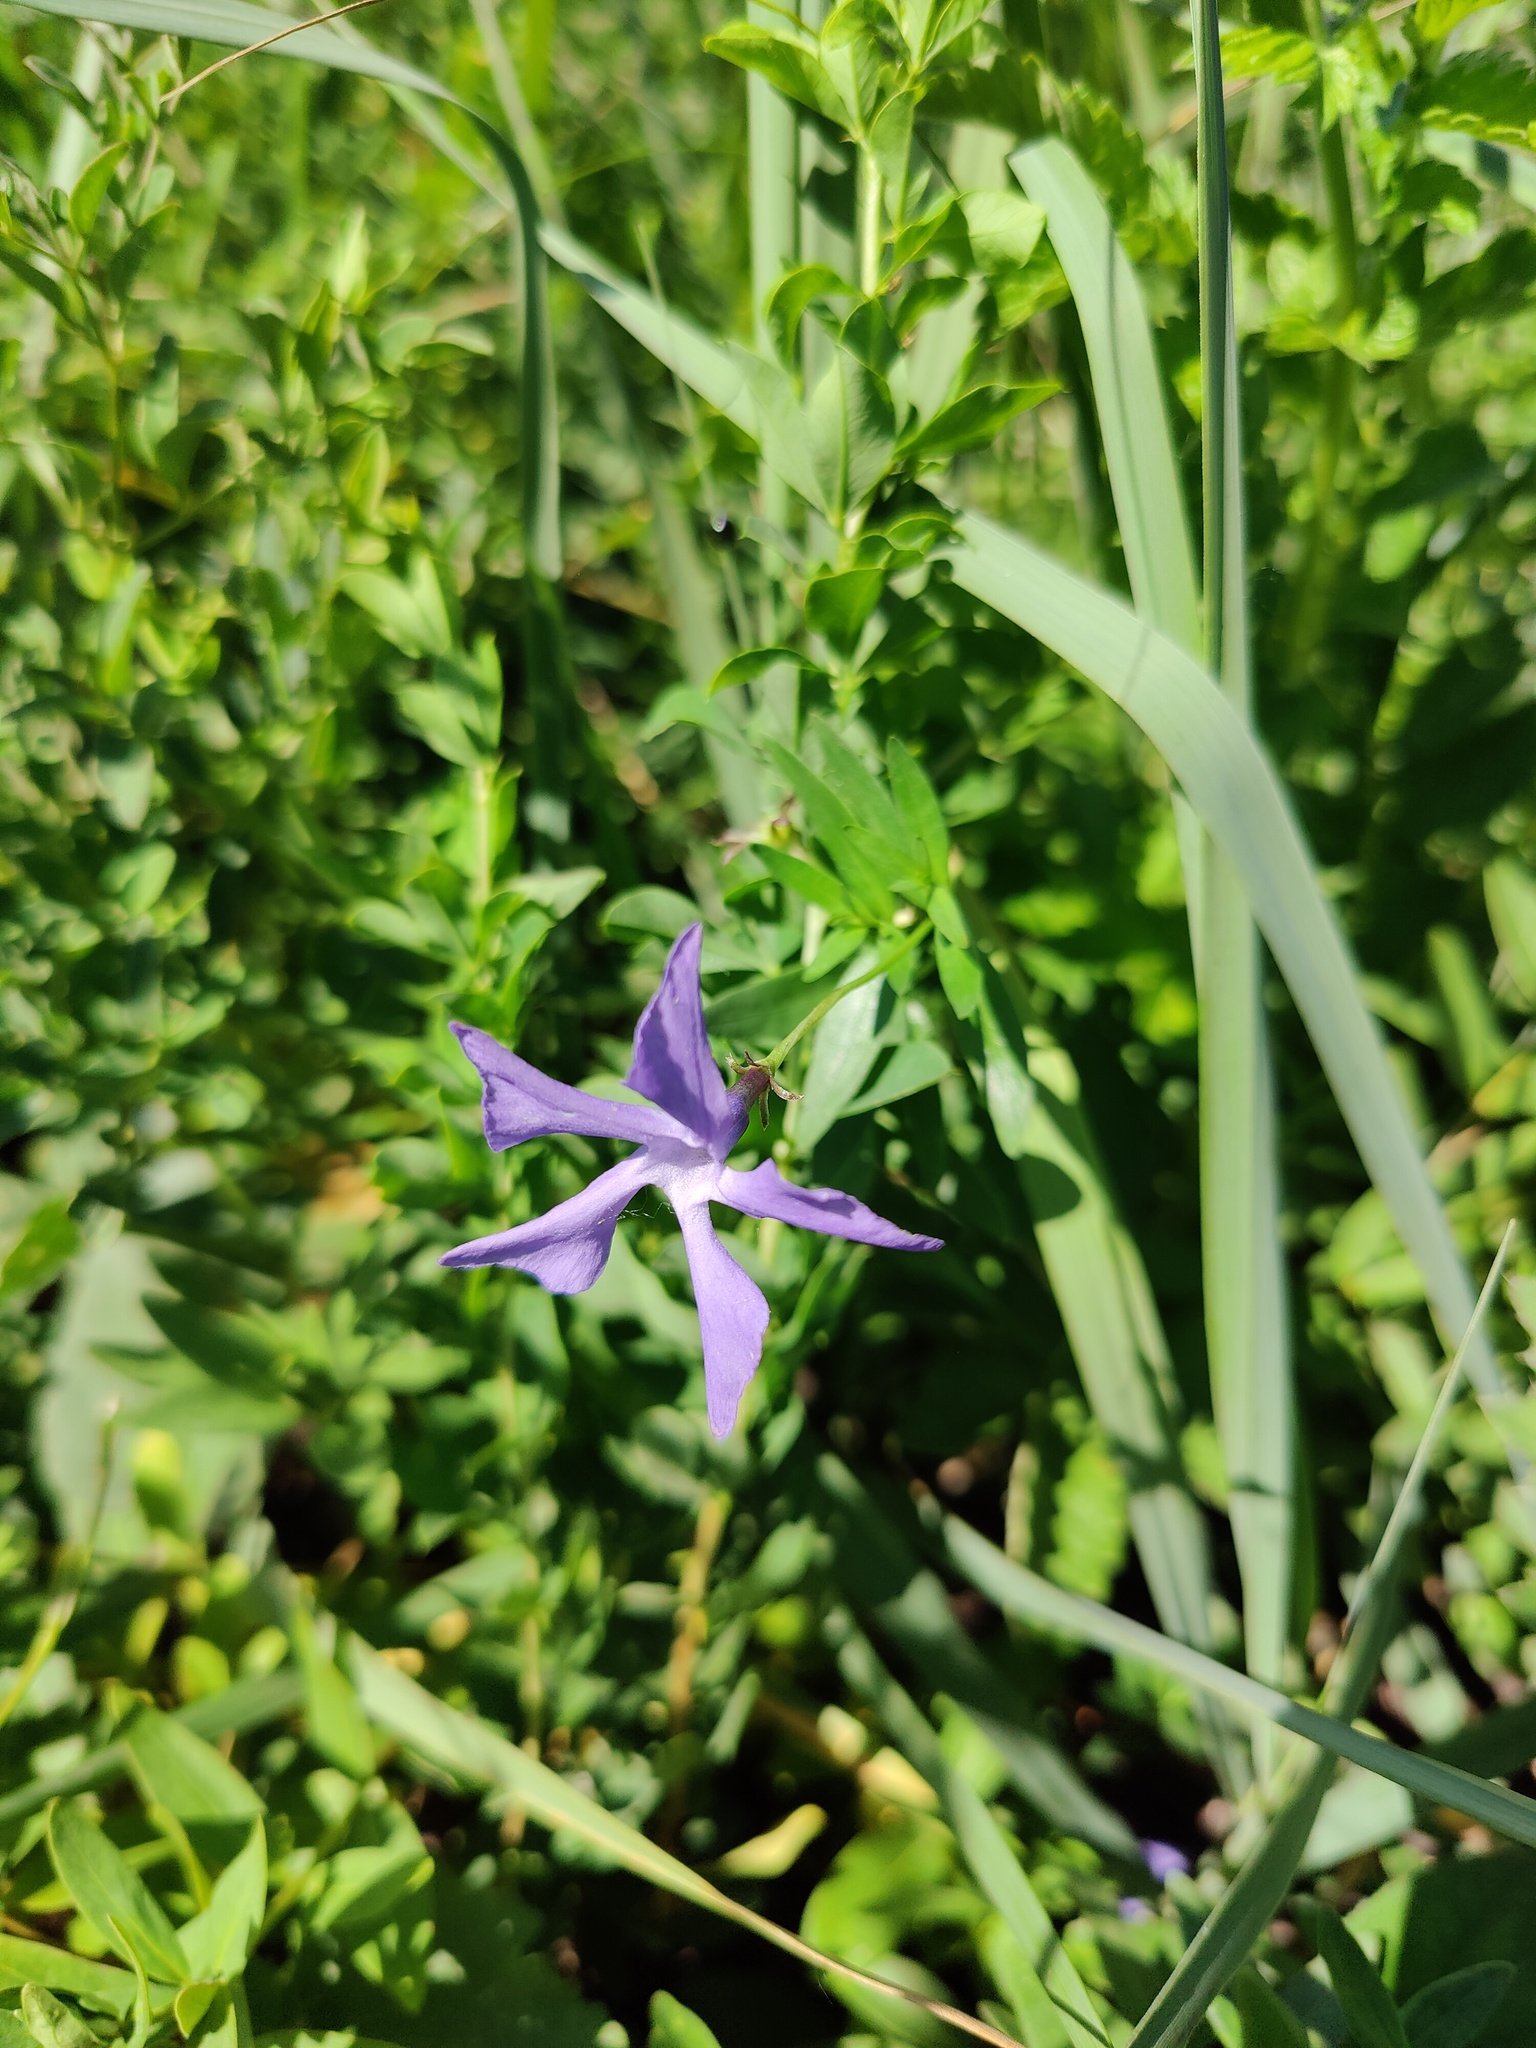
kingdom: Plantae
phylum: Tracheophyta
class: Magnoliopsida
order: Gentianales
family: Apocynaceae
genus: Vinca
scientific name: Vinca herbacea
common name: Herbaceous periwinkle
